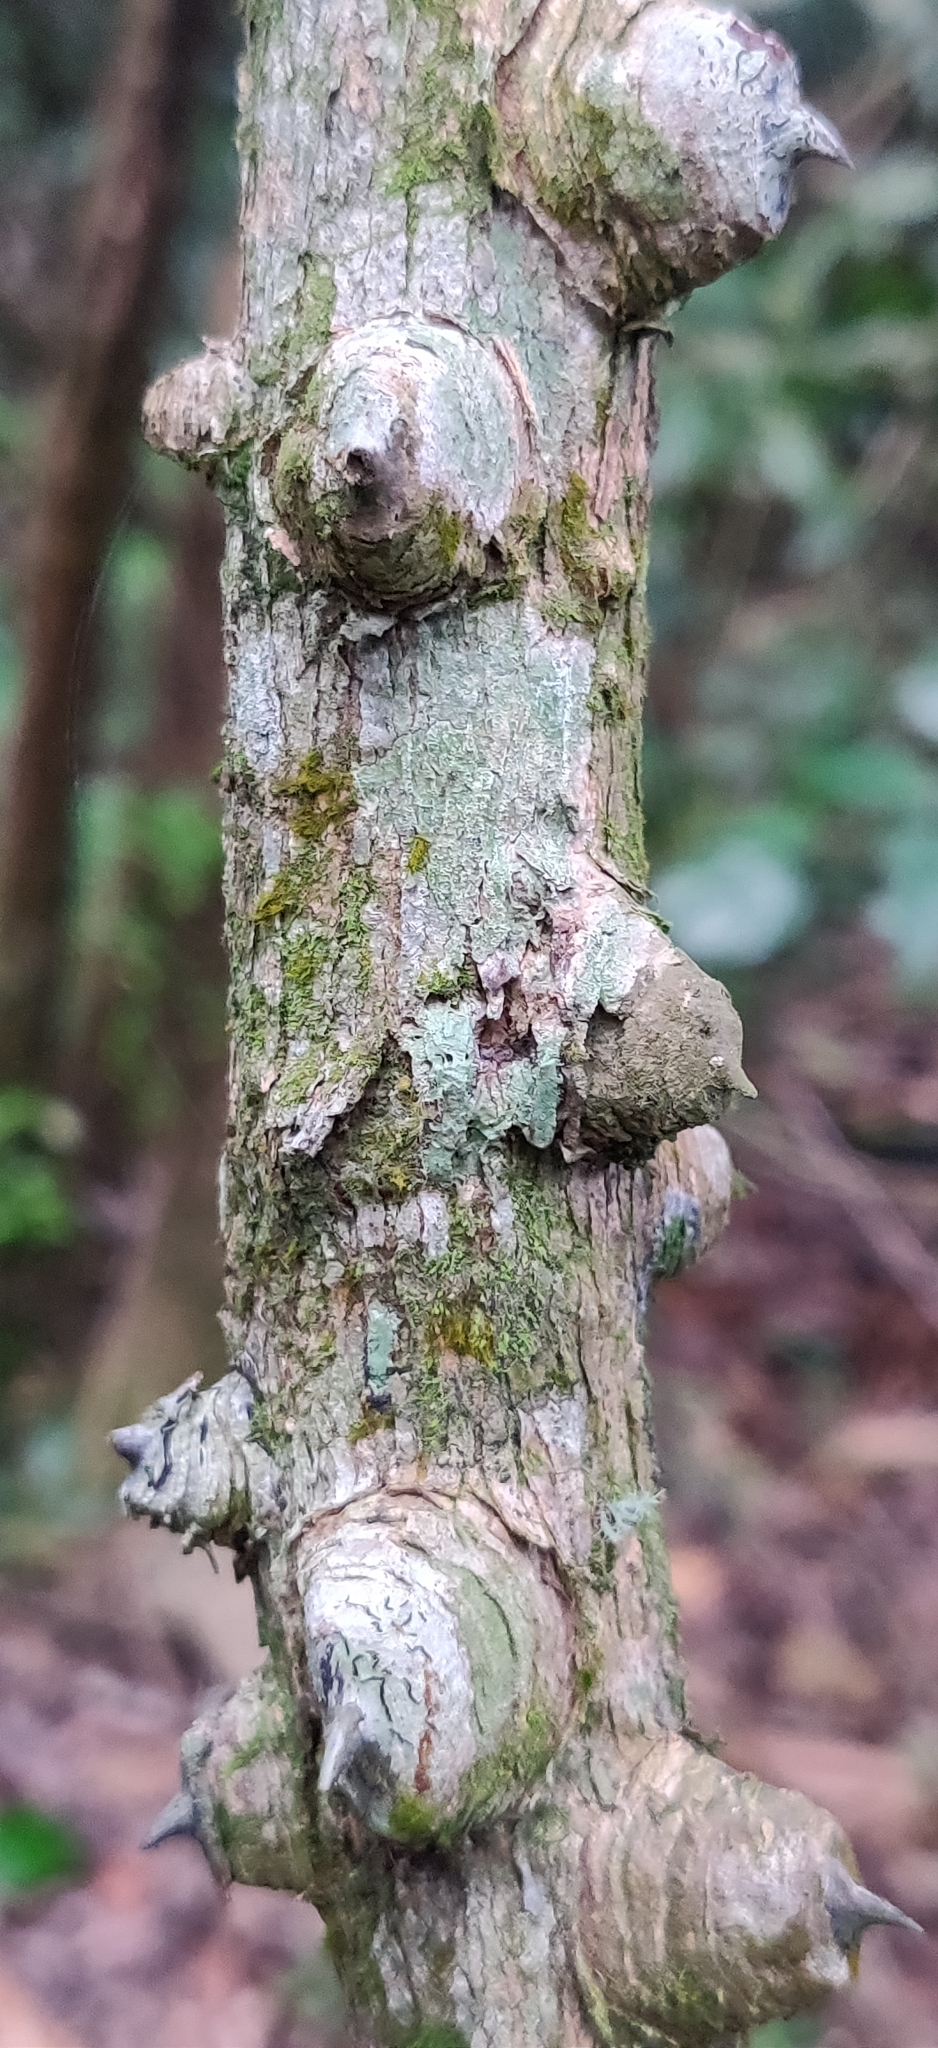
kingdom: Plantae
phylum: Tracheophyta
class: Magnoliopsida
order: Fabales
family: Fabaceae
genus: Mezoneuron
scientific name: Mezoneuron cucullatum
